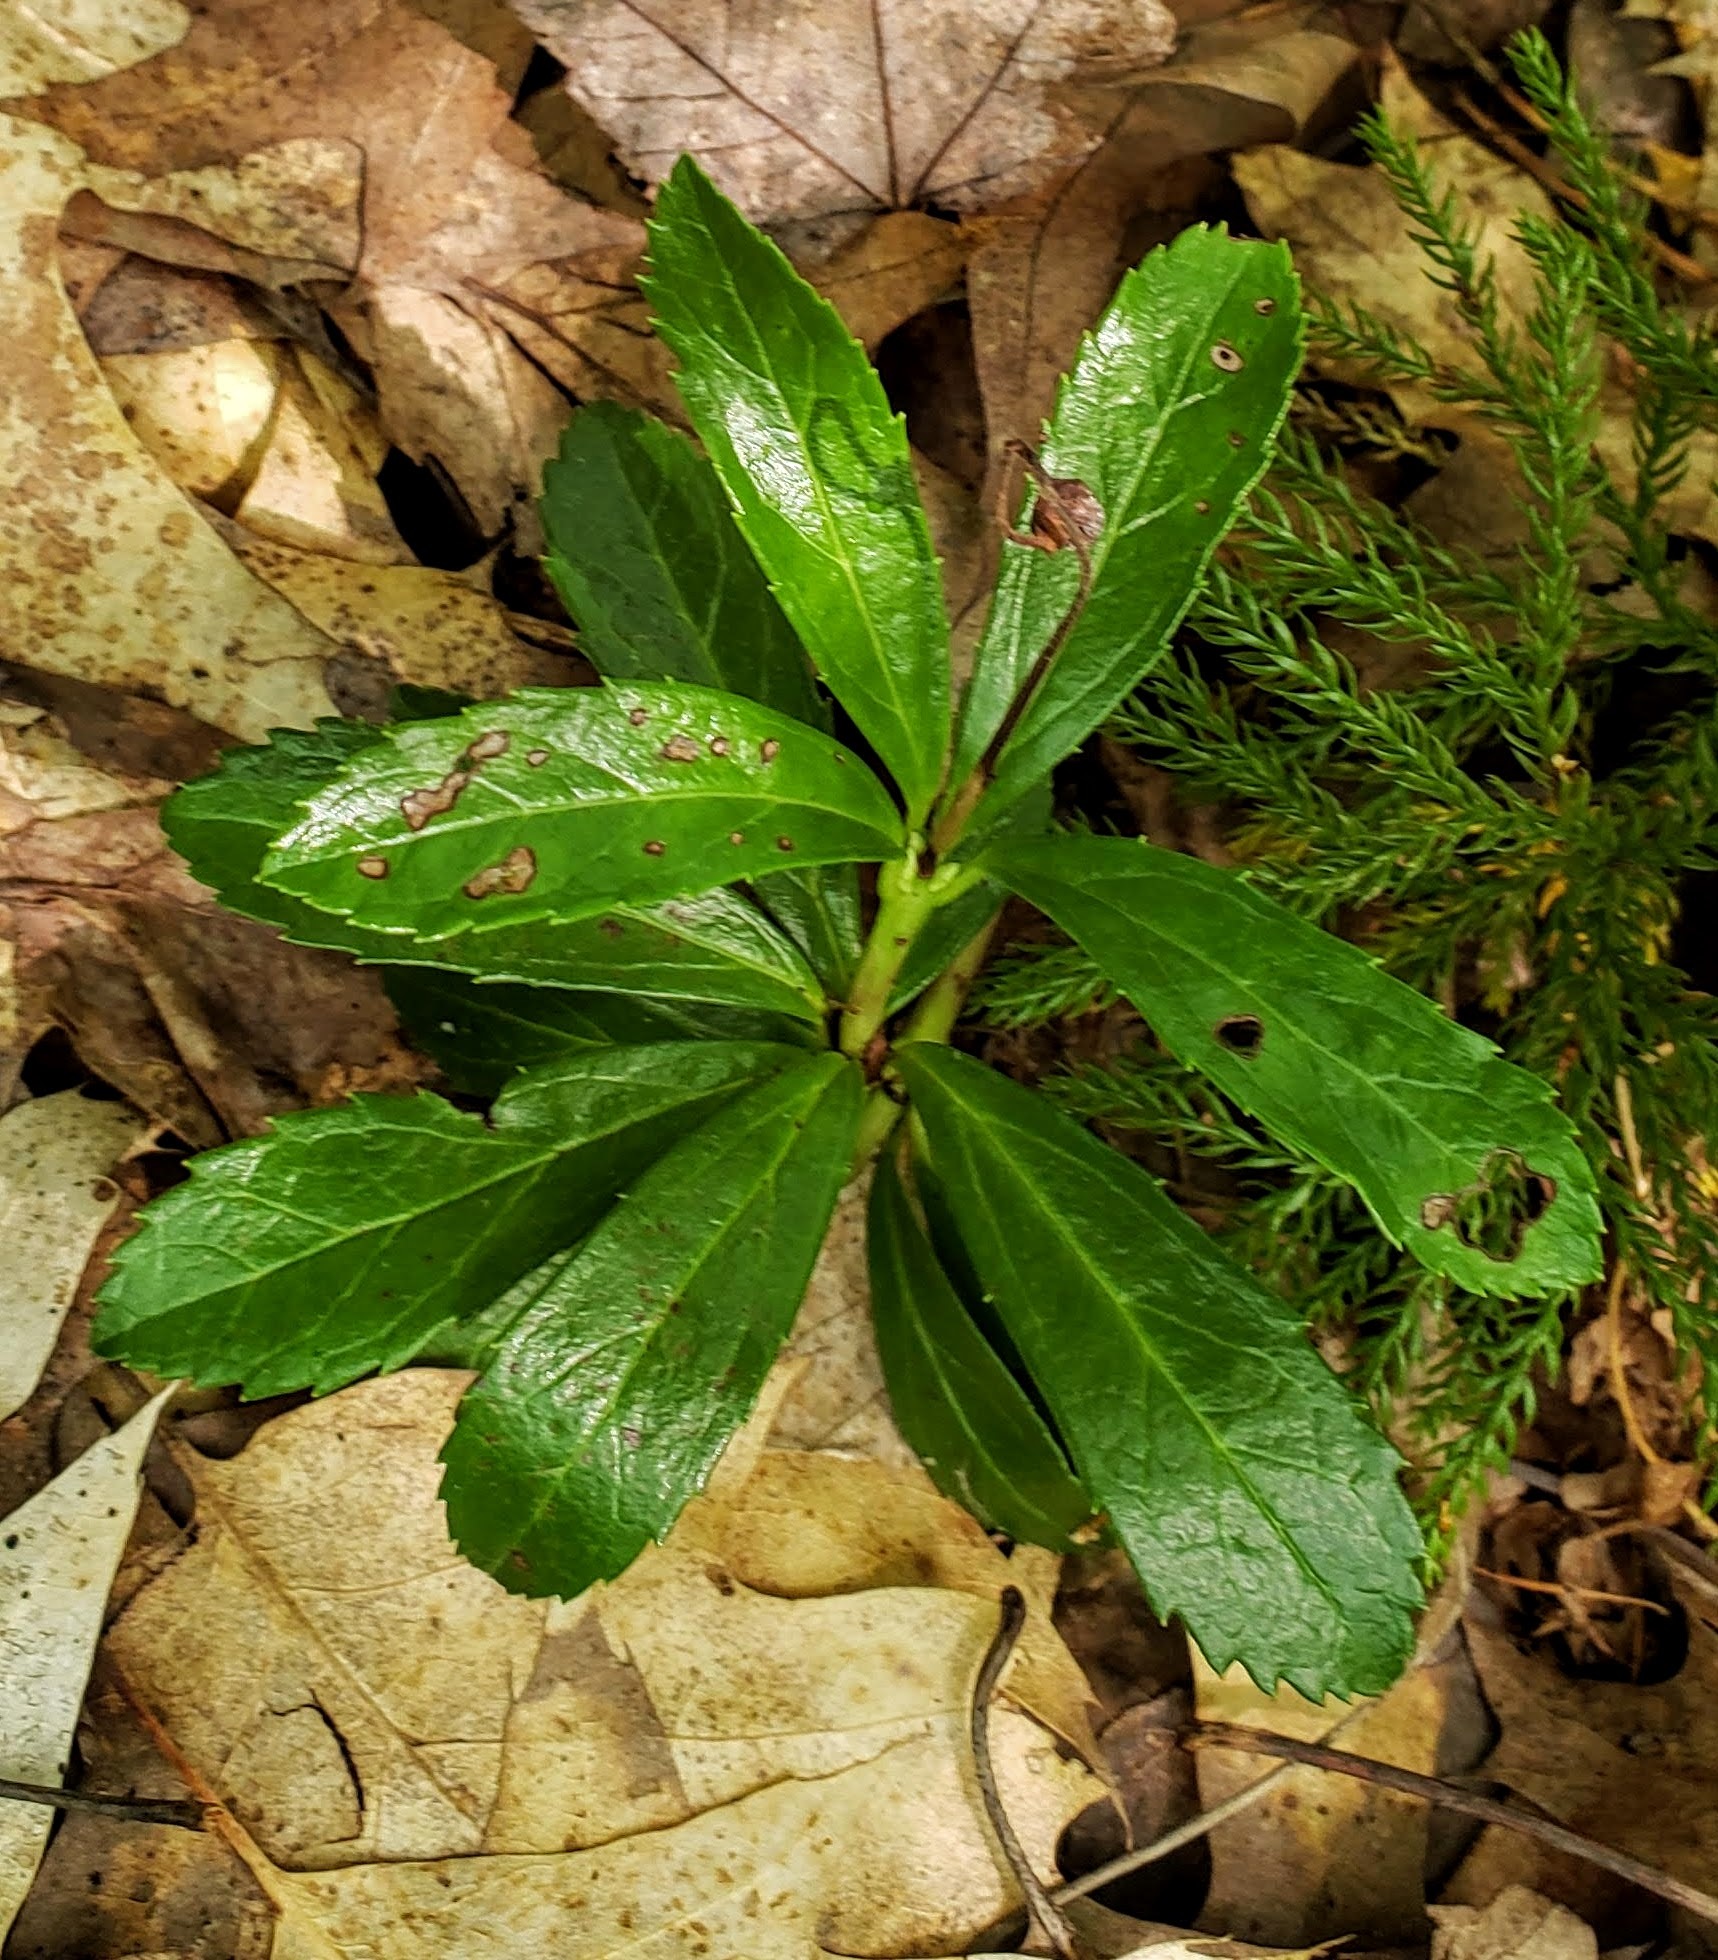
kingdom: Plantae
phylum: Tracheophyta
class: Magnoliopsida
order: Ericales
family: Ericaceae
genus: Chimaphila
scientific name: Chimaphila umbellata
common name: Pipsissewa
